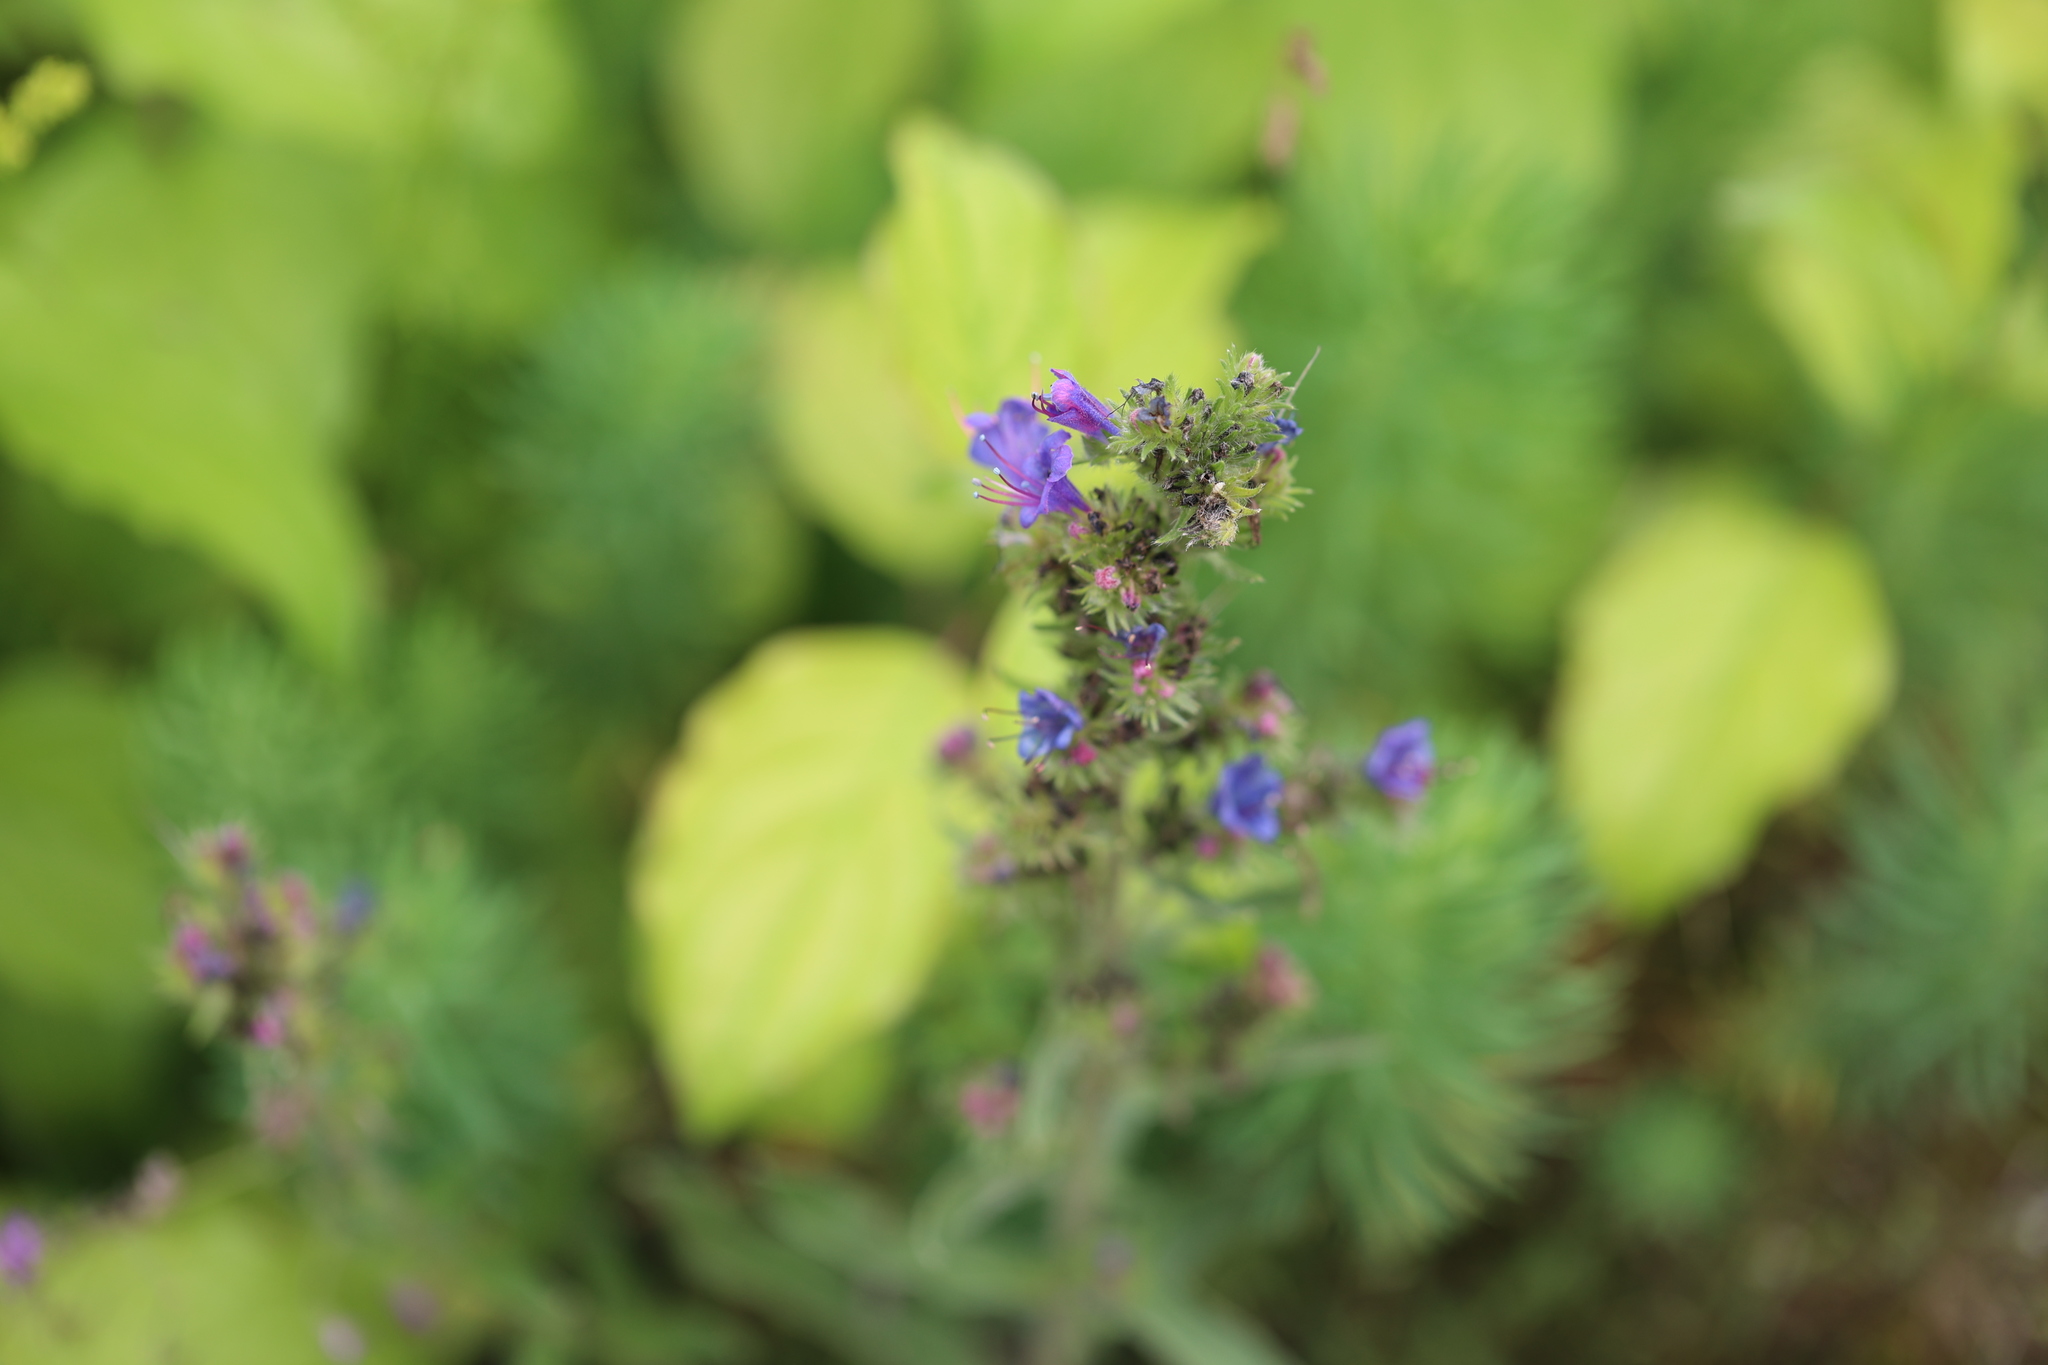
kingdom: Plantae
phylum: Tracheophyta
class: Magnoliopsida
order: Boraginales
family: Boraginaceae
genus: Echium
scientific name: Echium vulgare
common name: Common viper's bugloss
